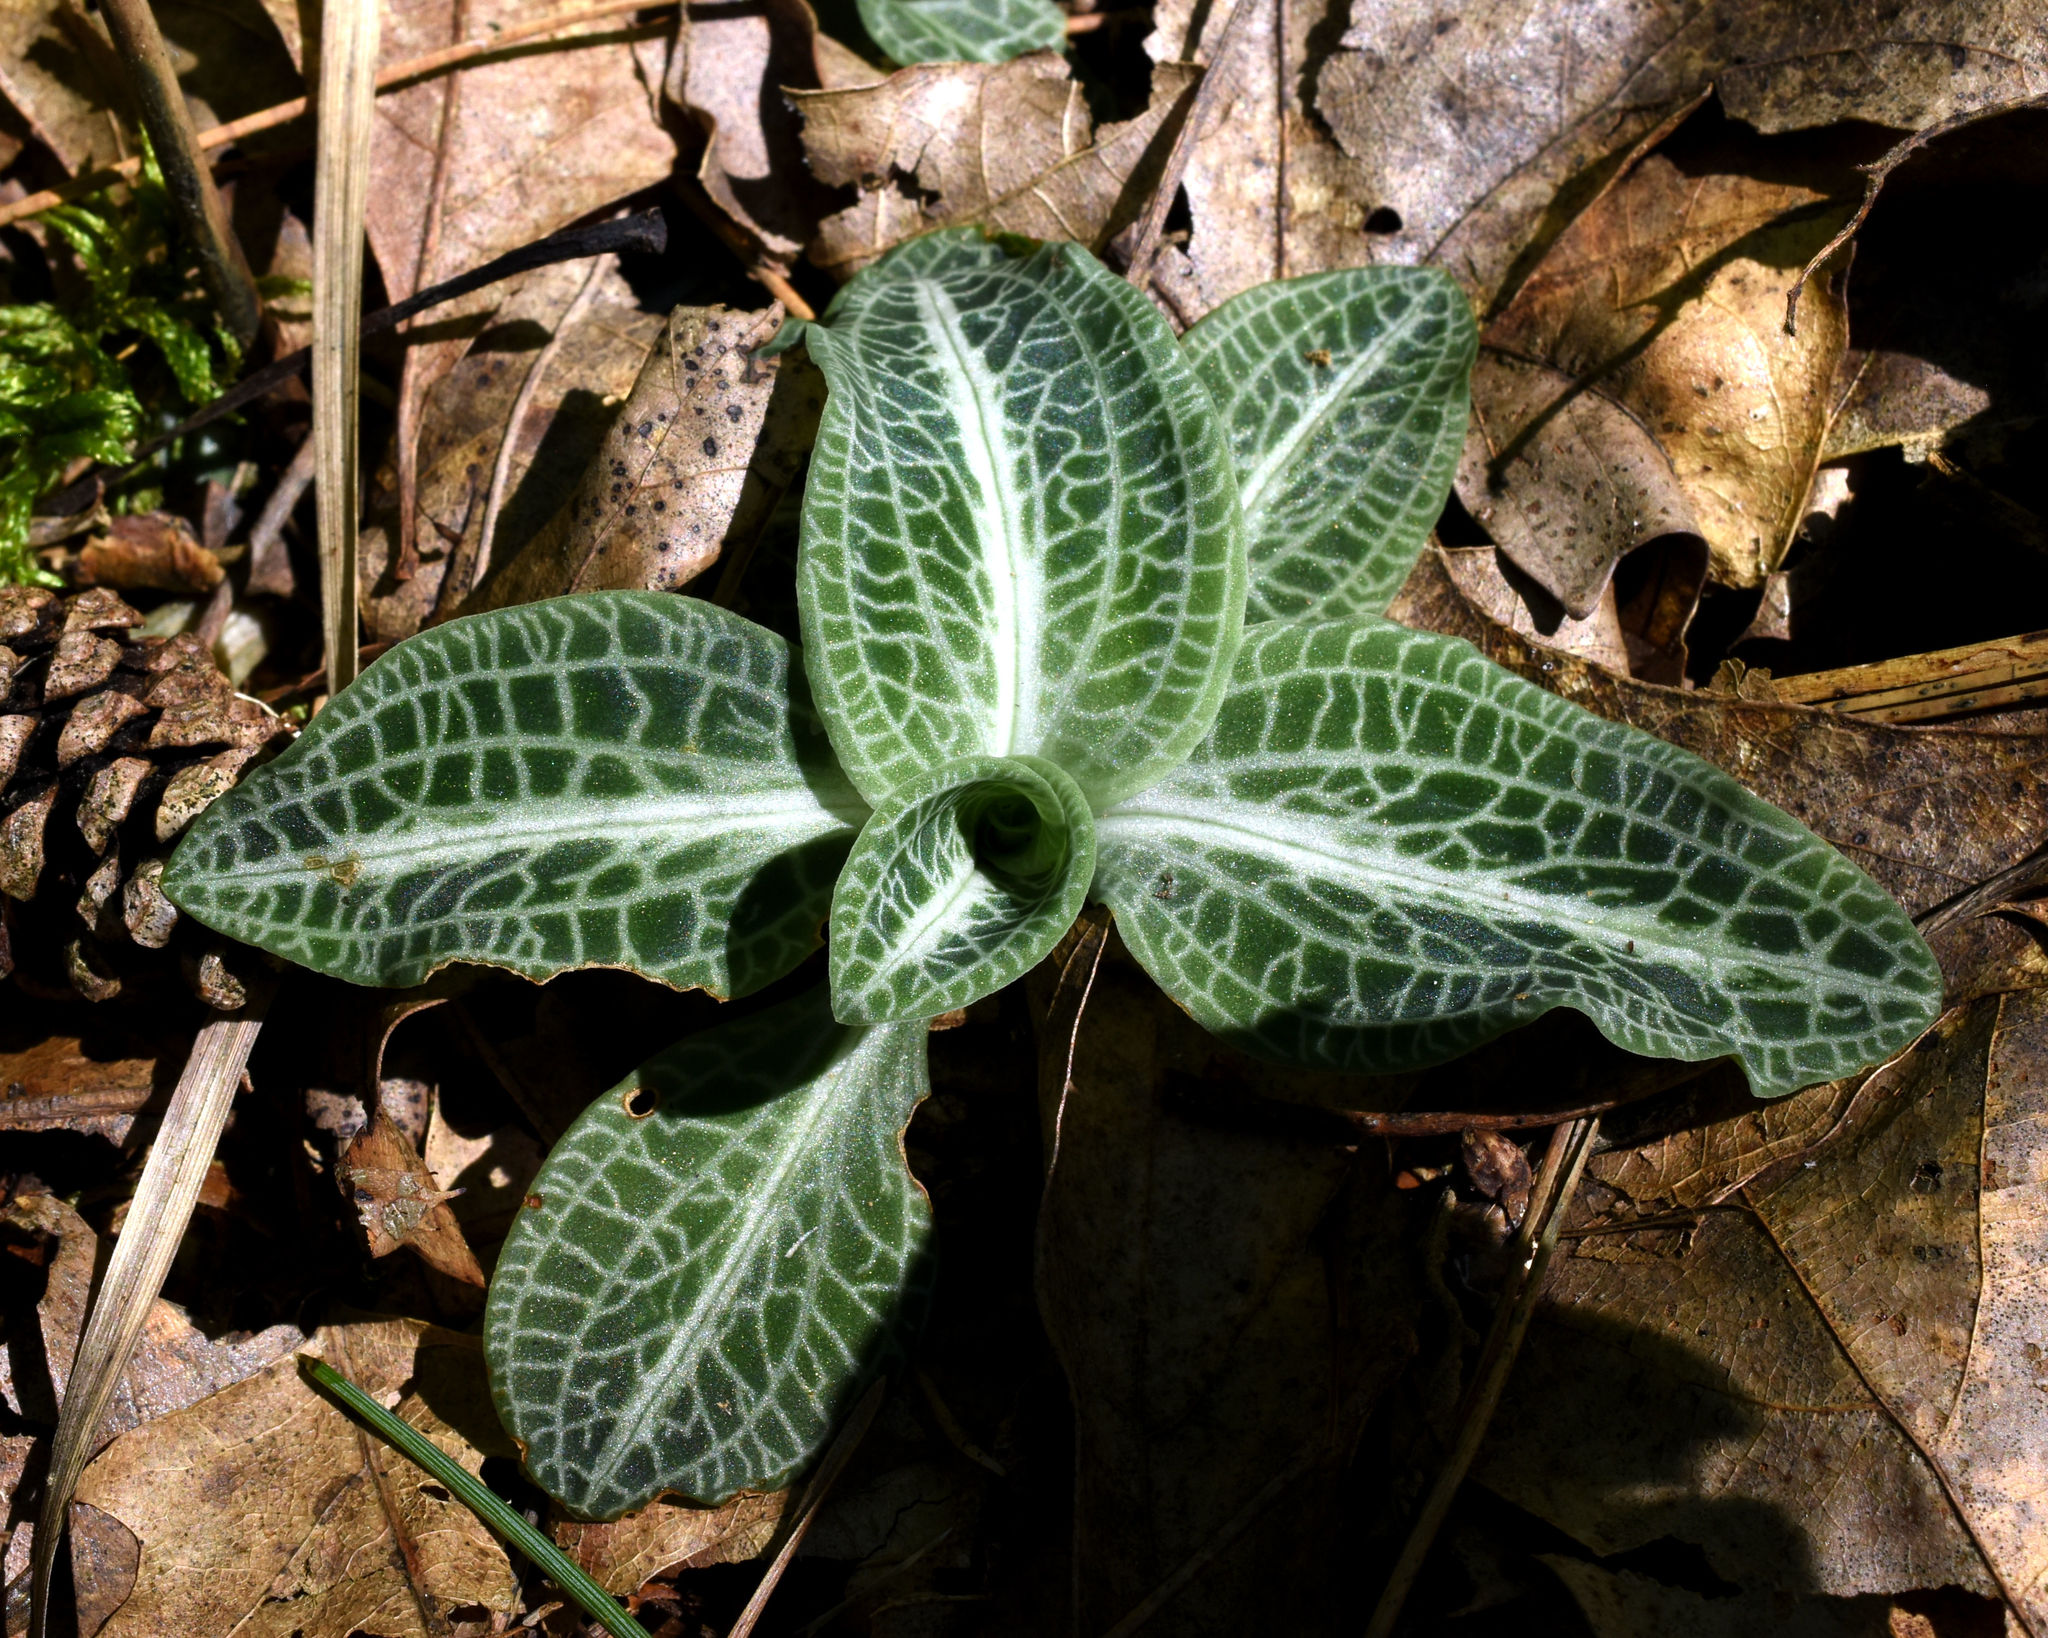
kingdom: Plantae
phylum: Tracheophyta
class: Liliopsida
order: Asparagales
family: Orchidaceae
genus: Goodyera
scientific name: Goodyera pubescens
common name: Downy rattlesnake-plantain
